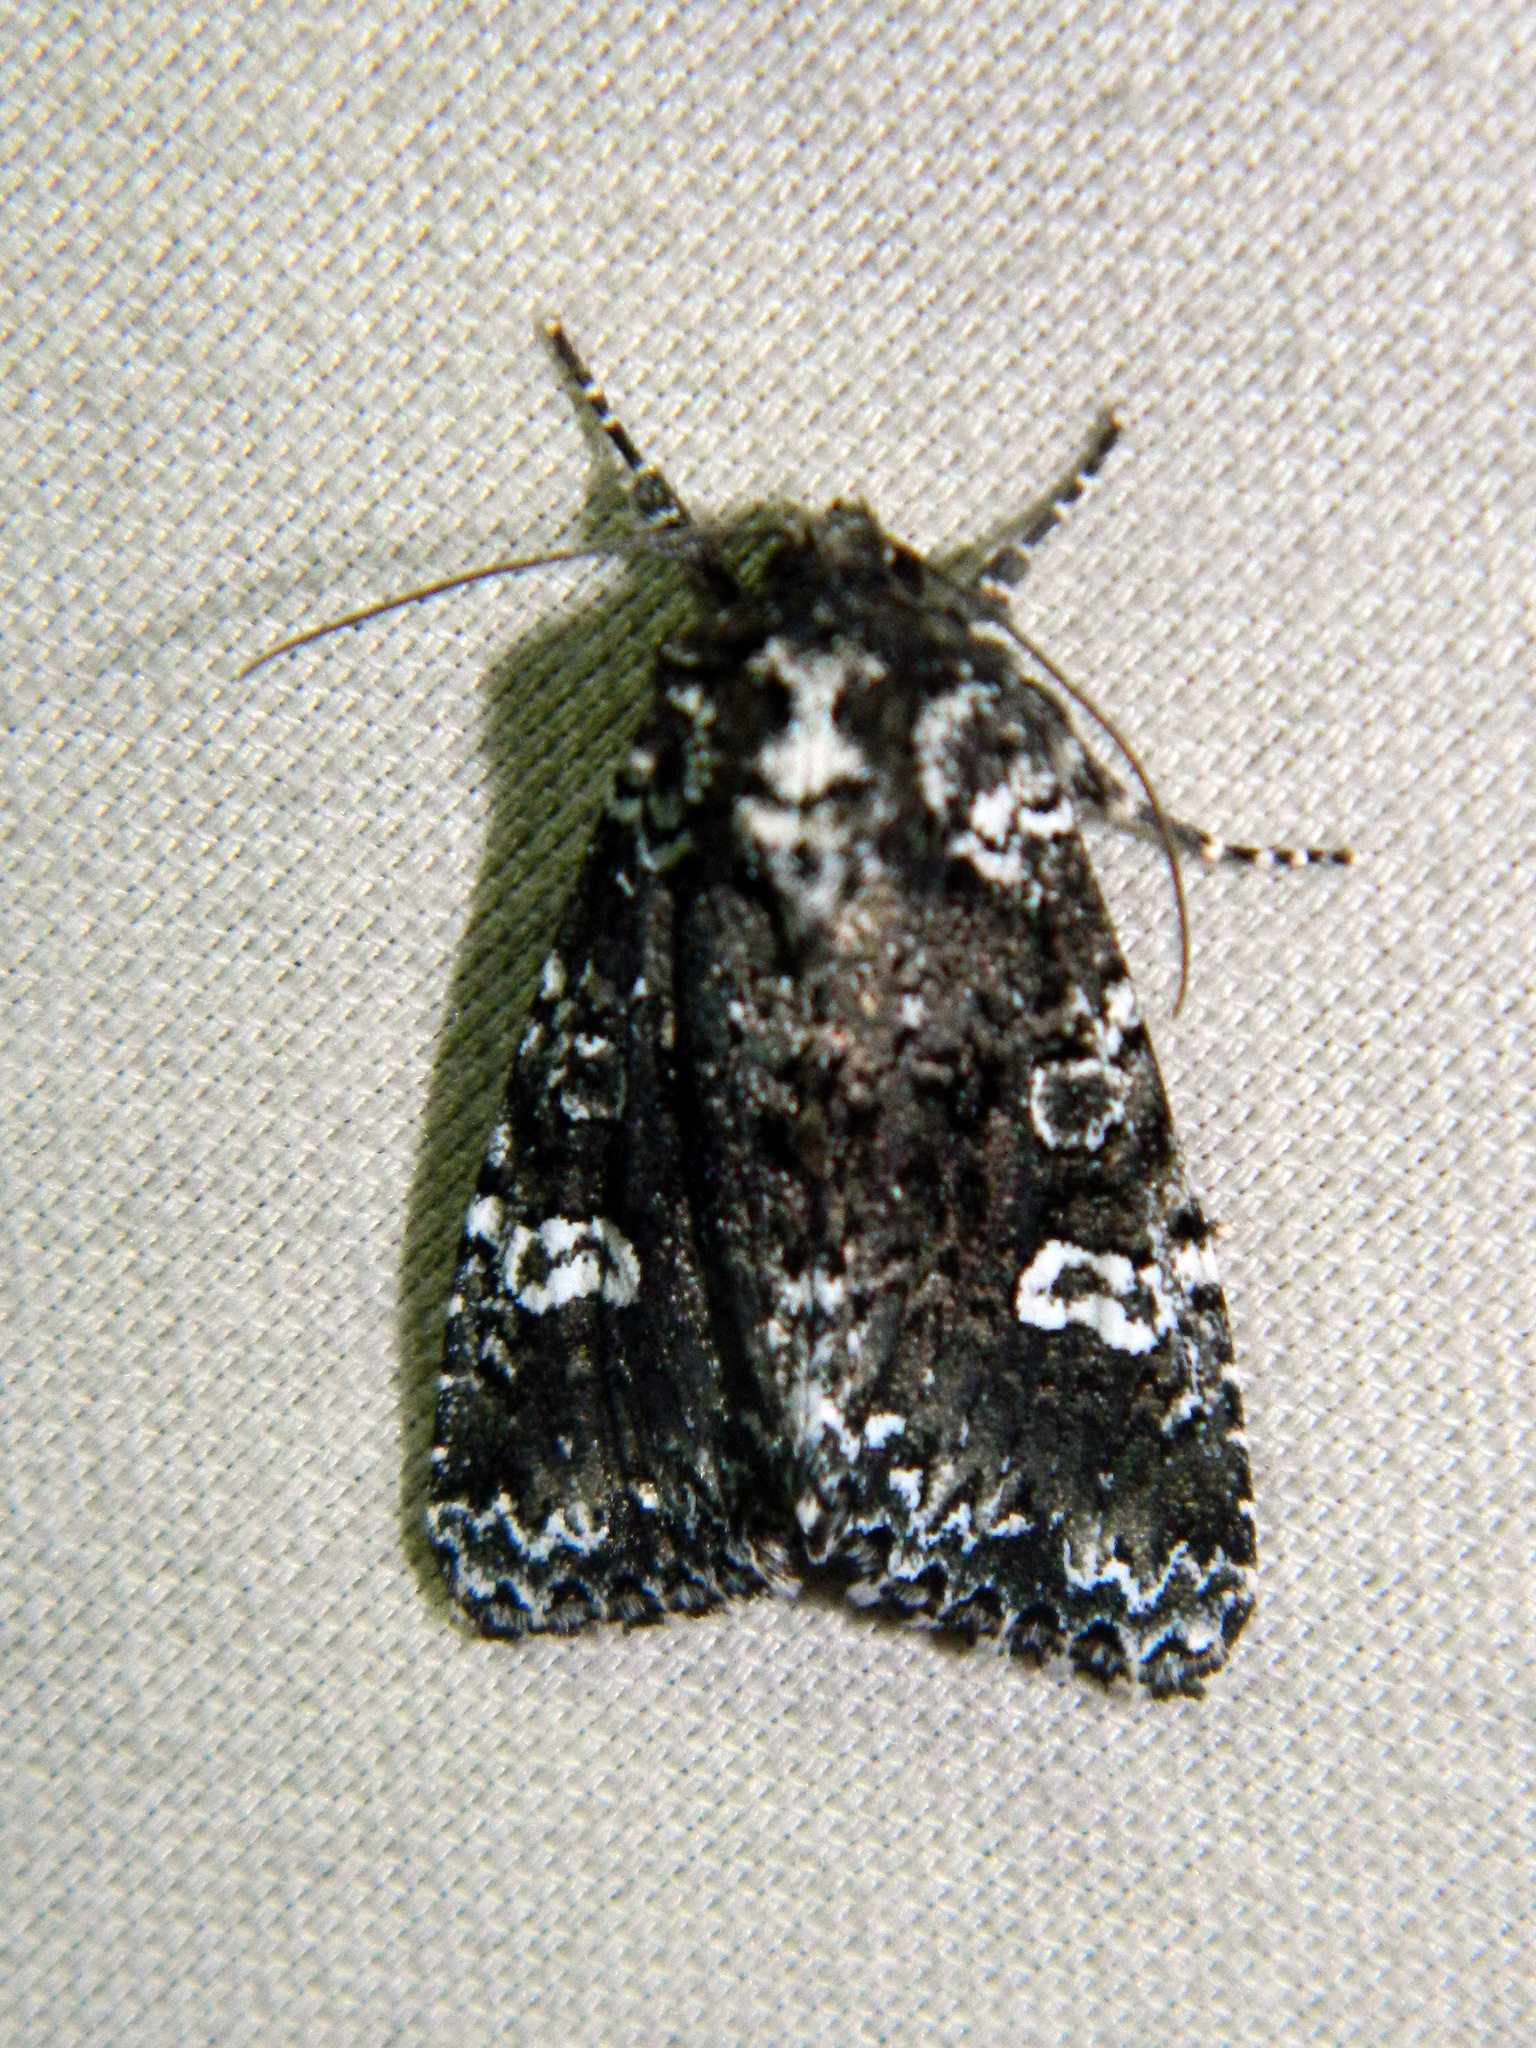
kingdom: Animalia
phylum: Arthropoda
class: Insecta
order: Lepidoptera
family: Noctuidae
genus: Melanchra
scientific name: Melanchra adjuncta
